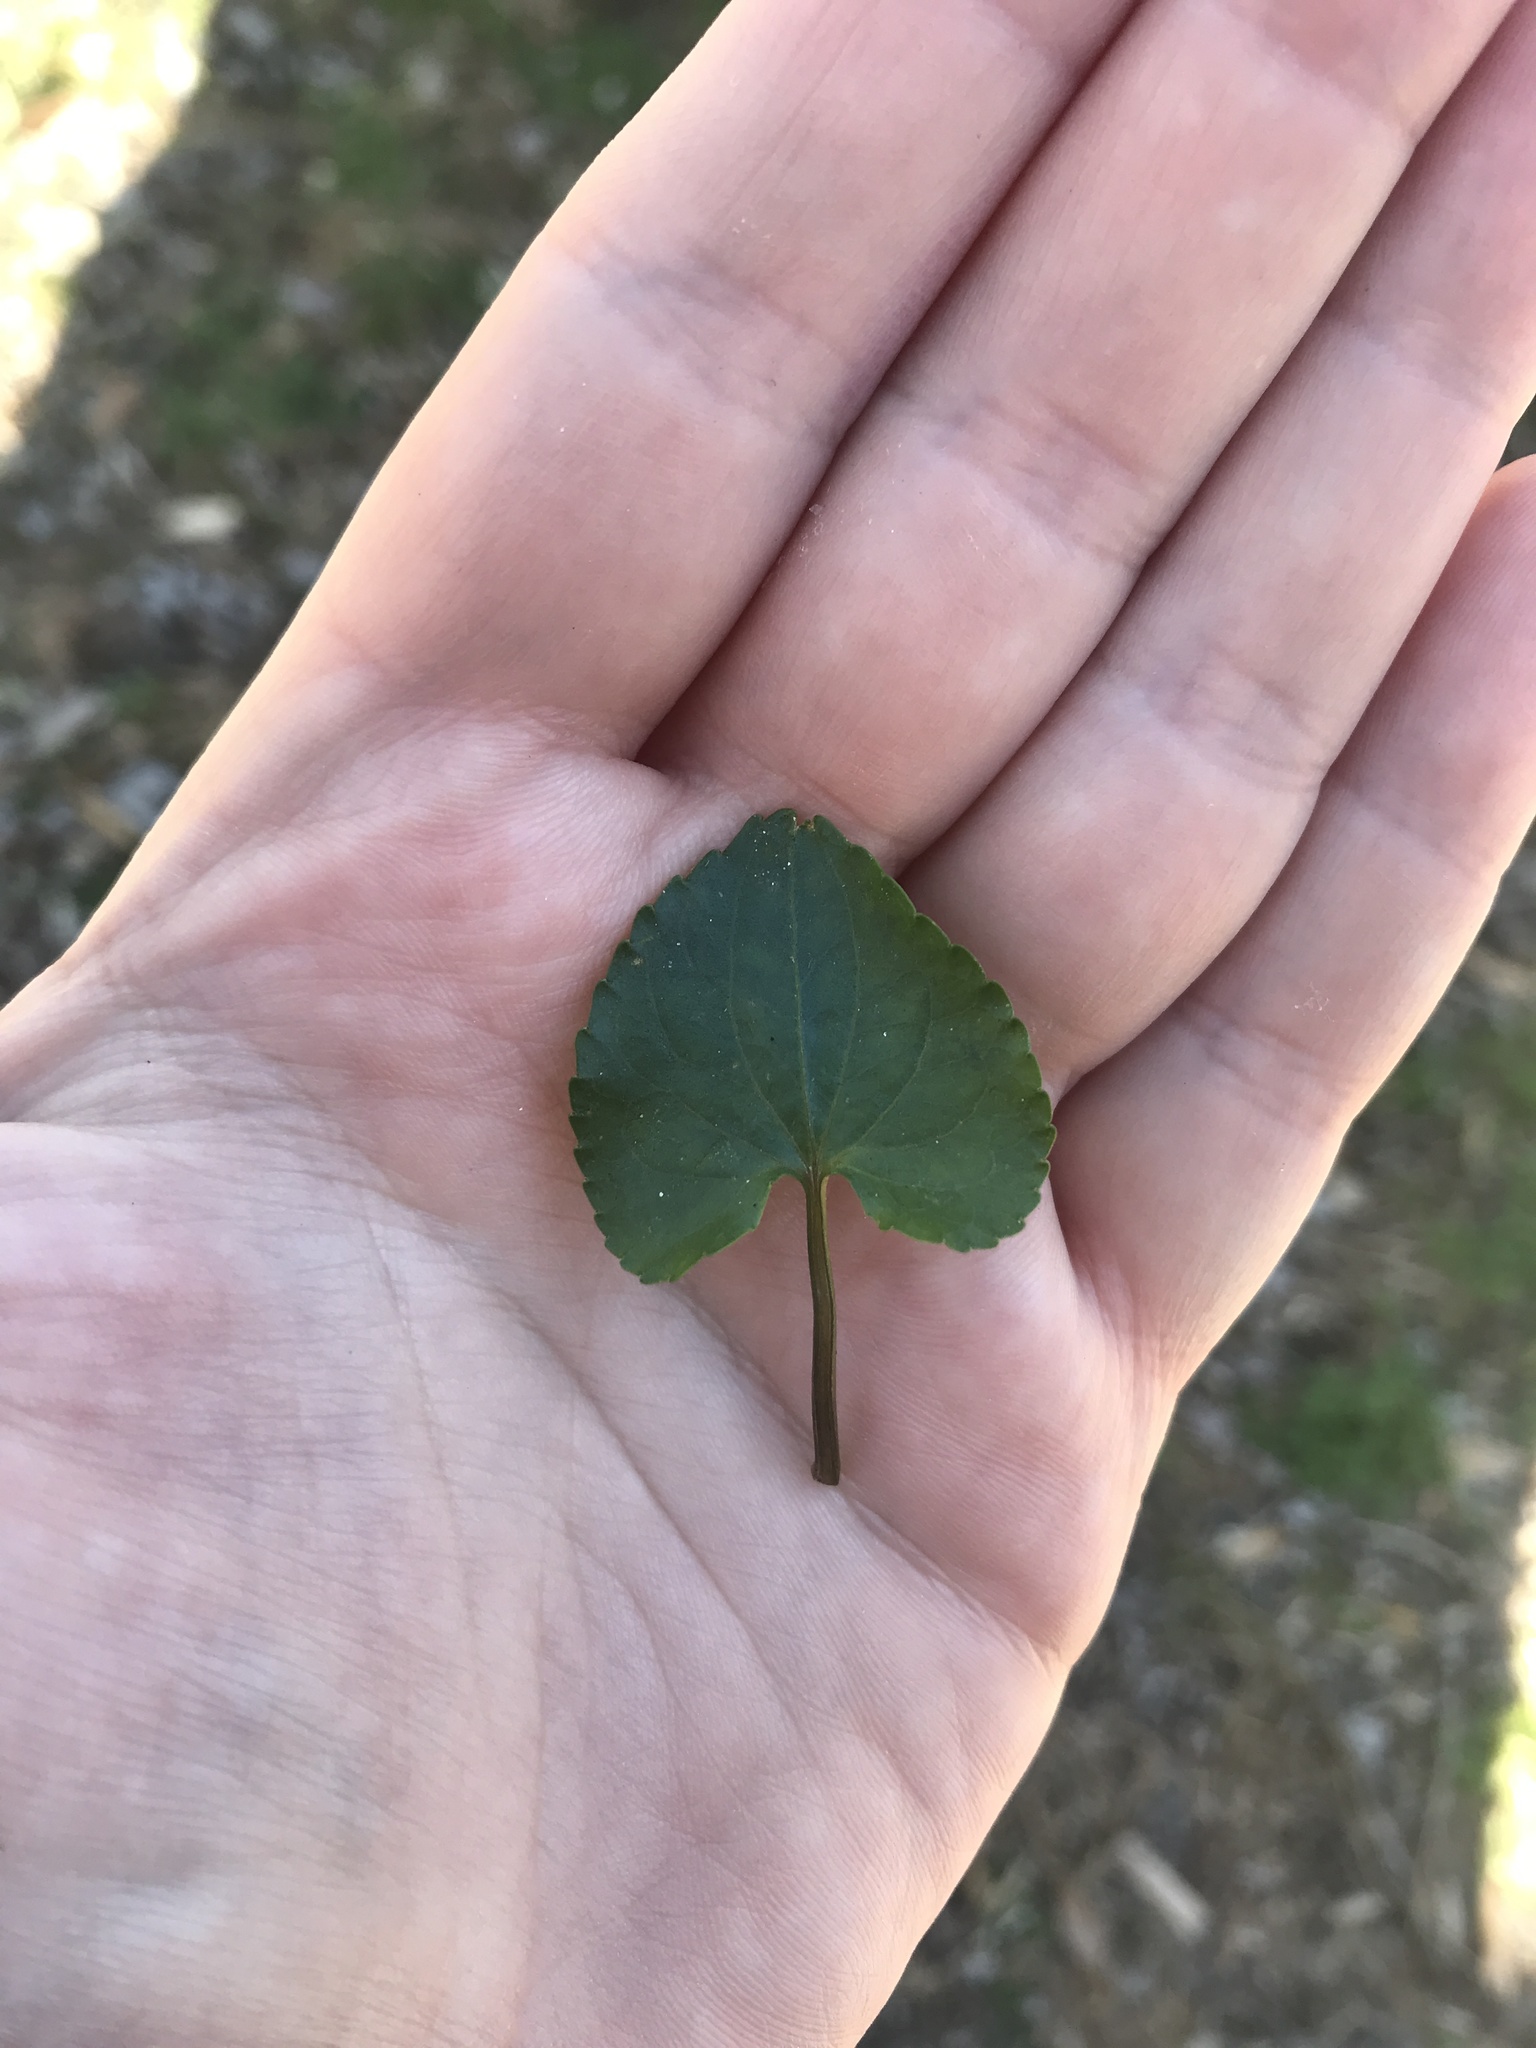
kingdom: Plantae
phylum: Tracheophyta
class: Magnoliopsida
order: Malpighiales
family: Violaceae
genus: Viola
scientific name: Viola sororia
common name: Dooryard violet
